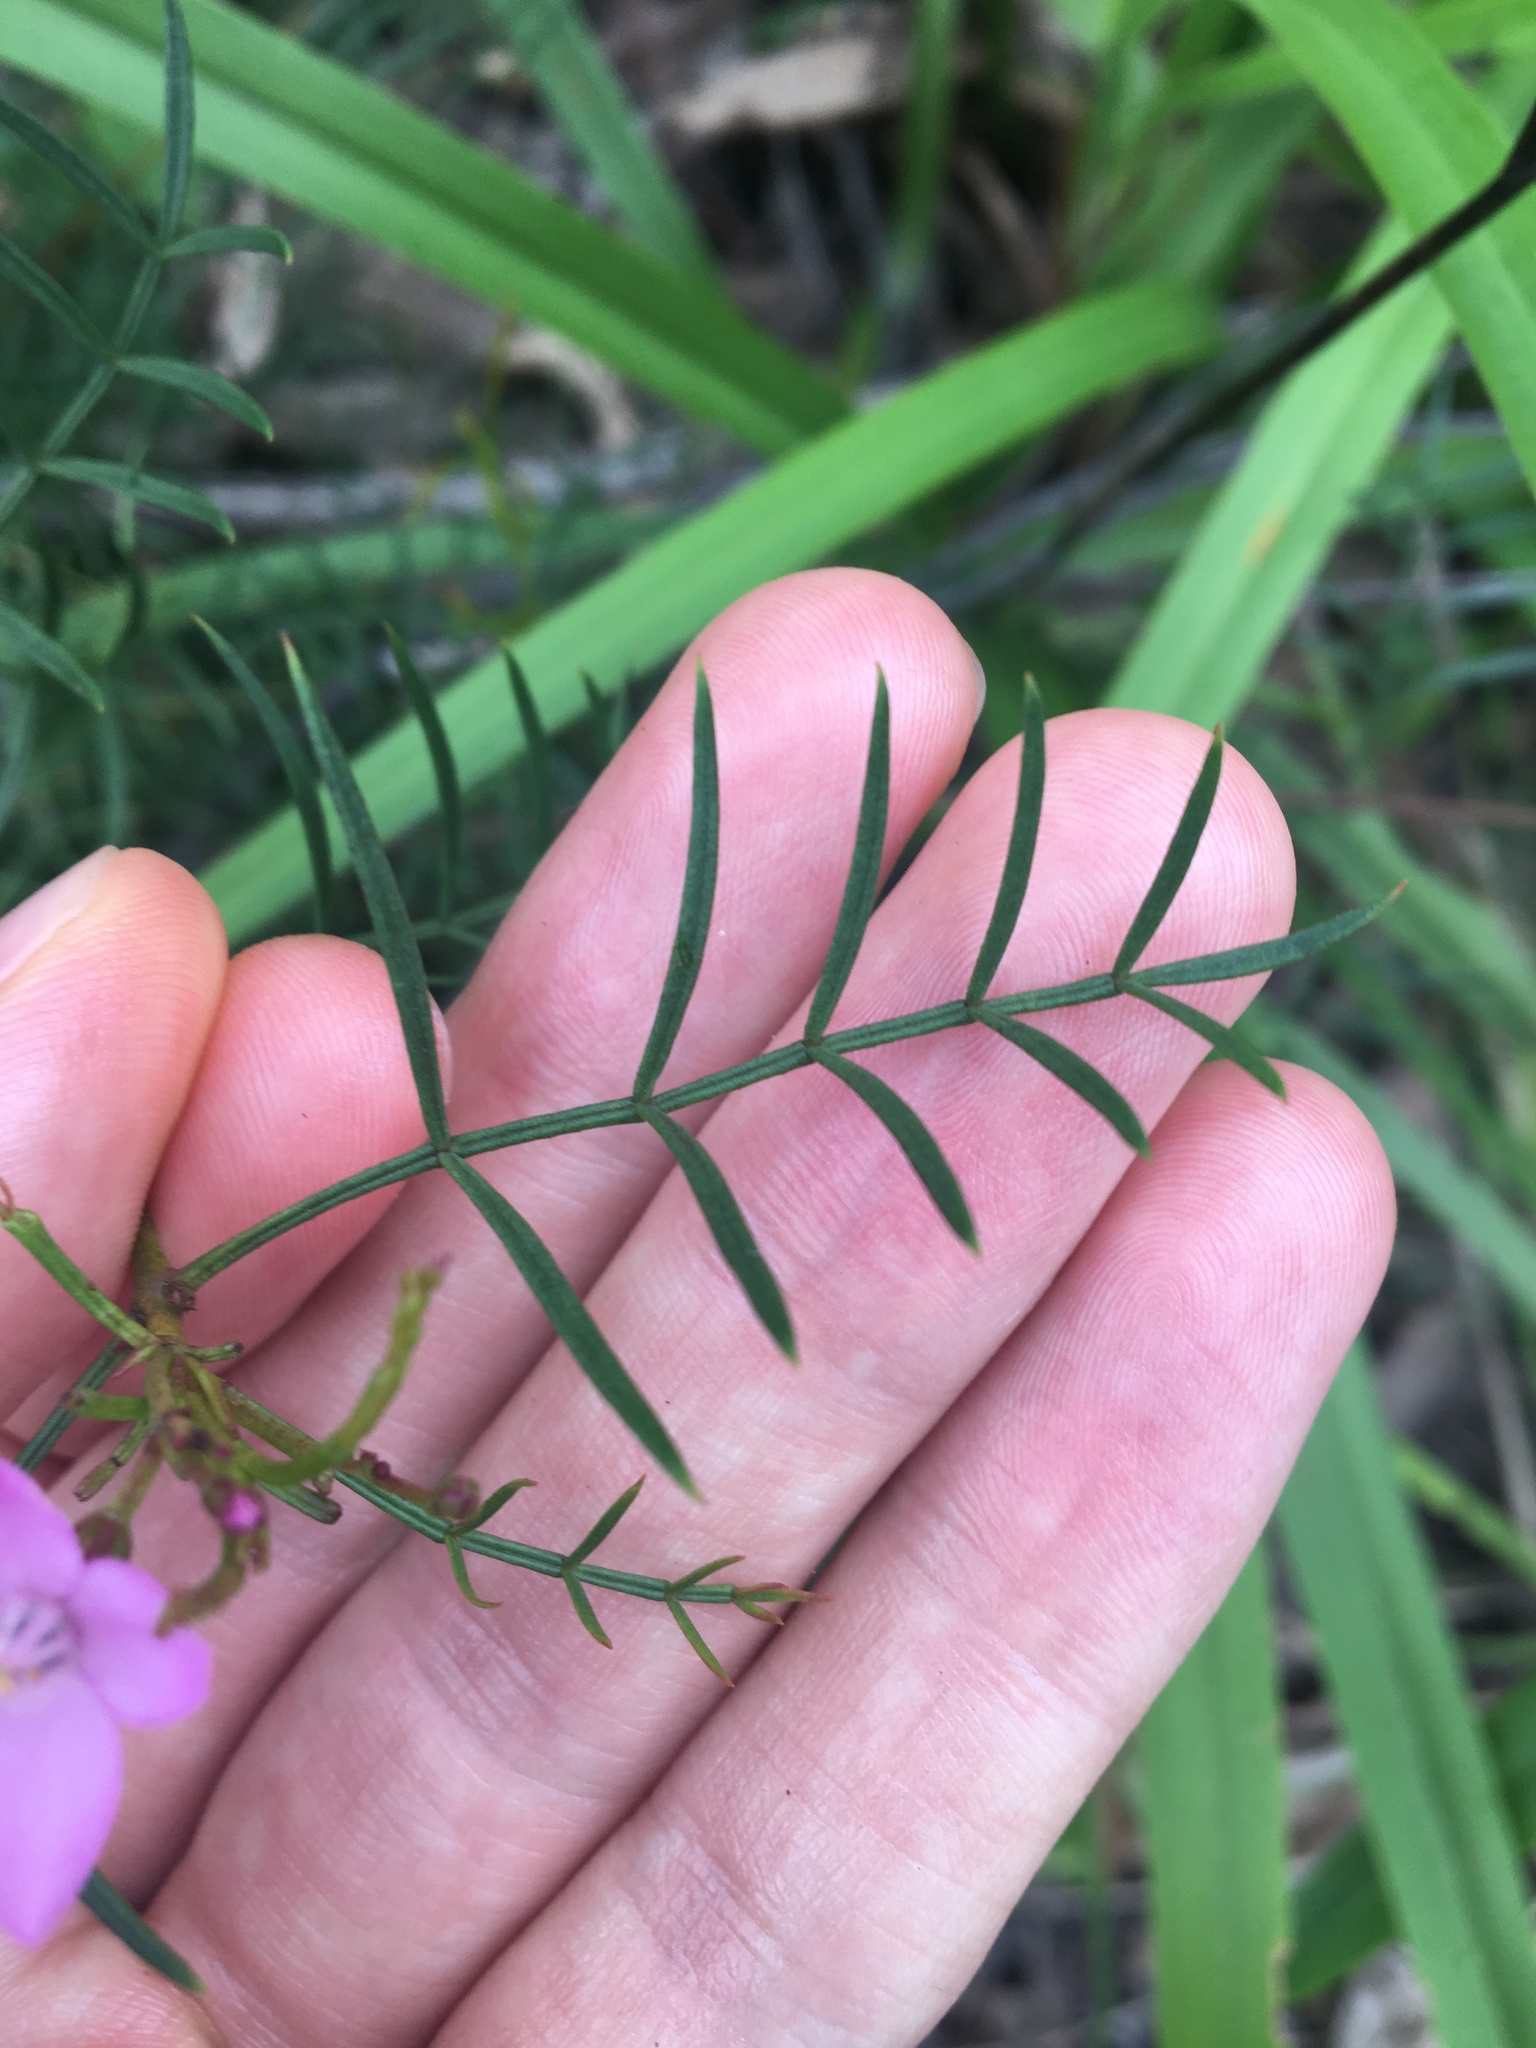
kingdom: Plantae
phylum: Tracheophyta
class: Magnoliopsida
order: Sapindales
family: Rutaceae
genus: Boronia
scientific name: Boronia pinnata
